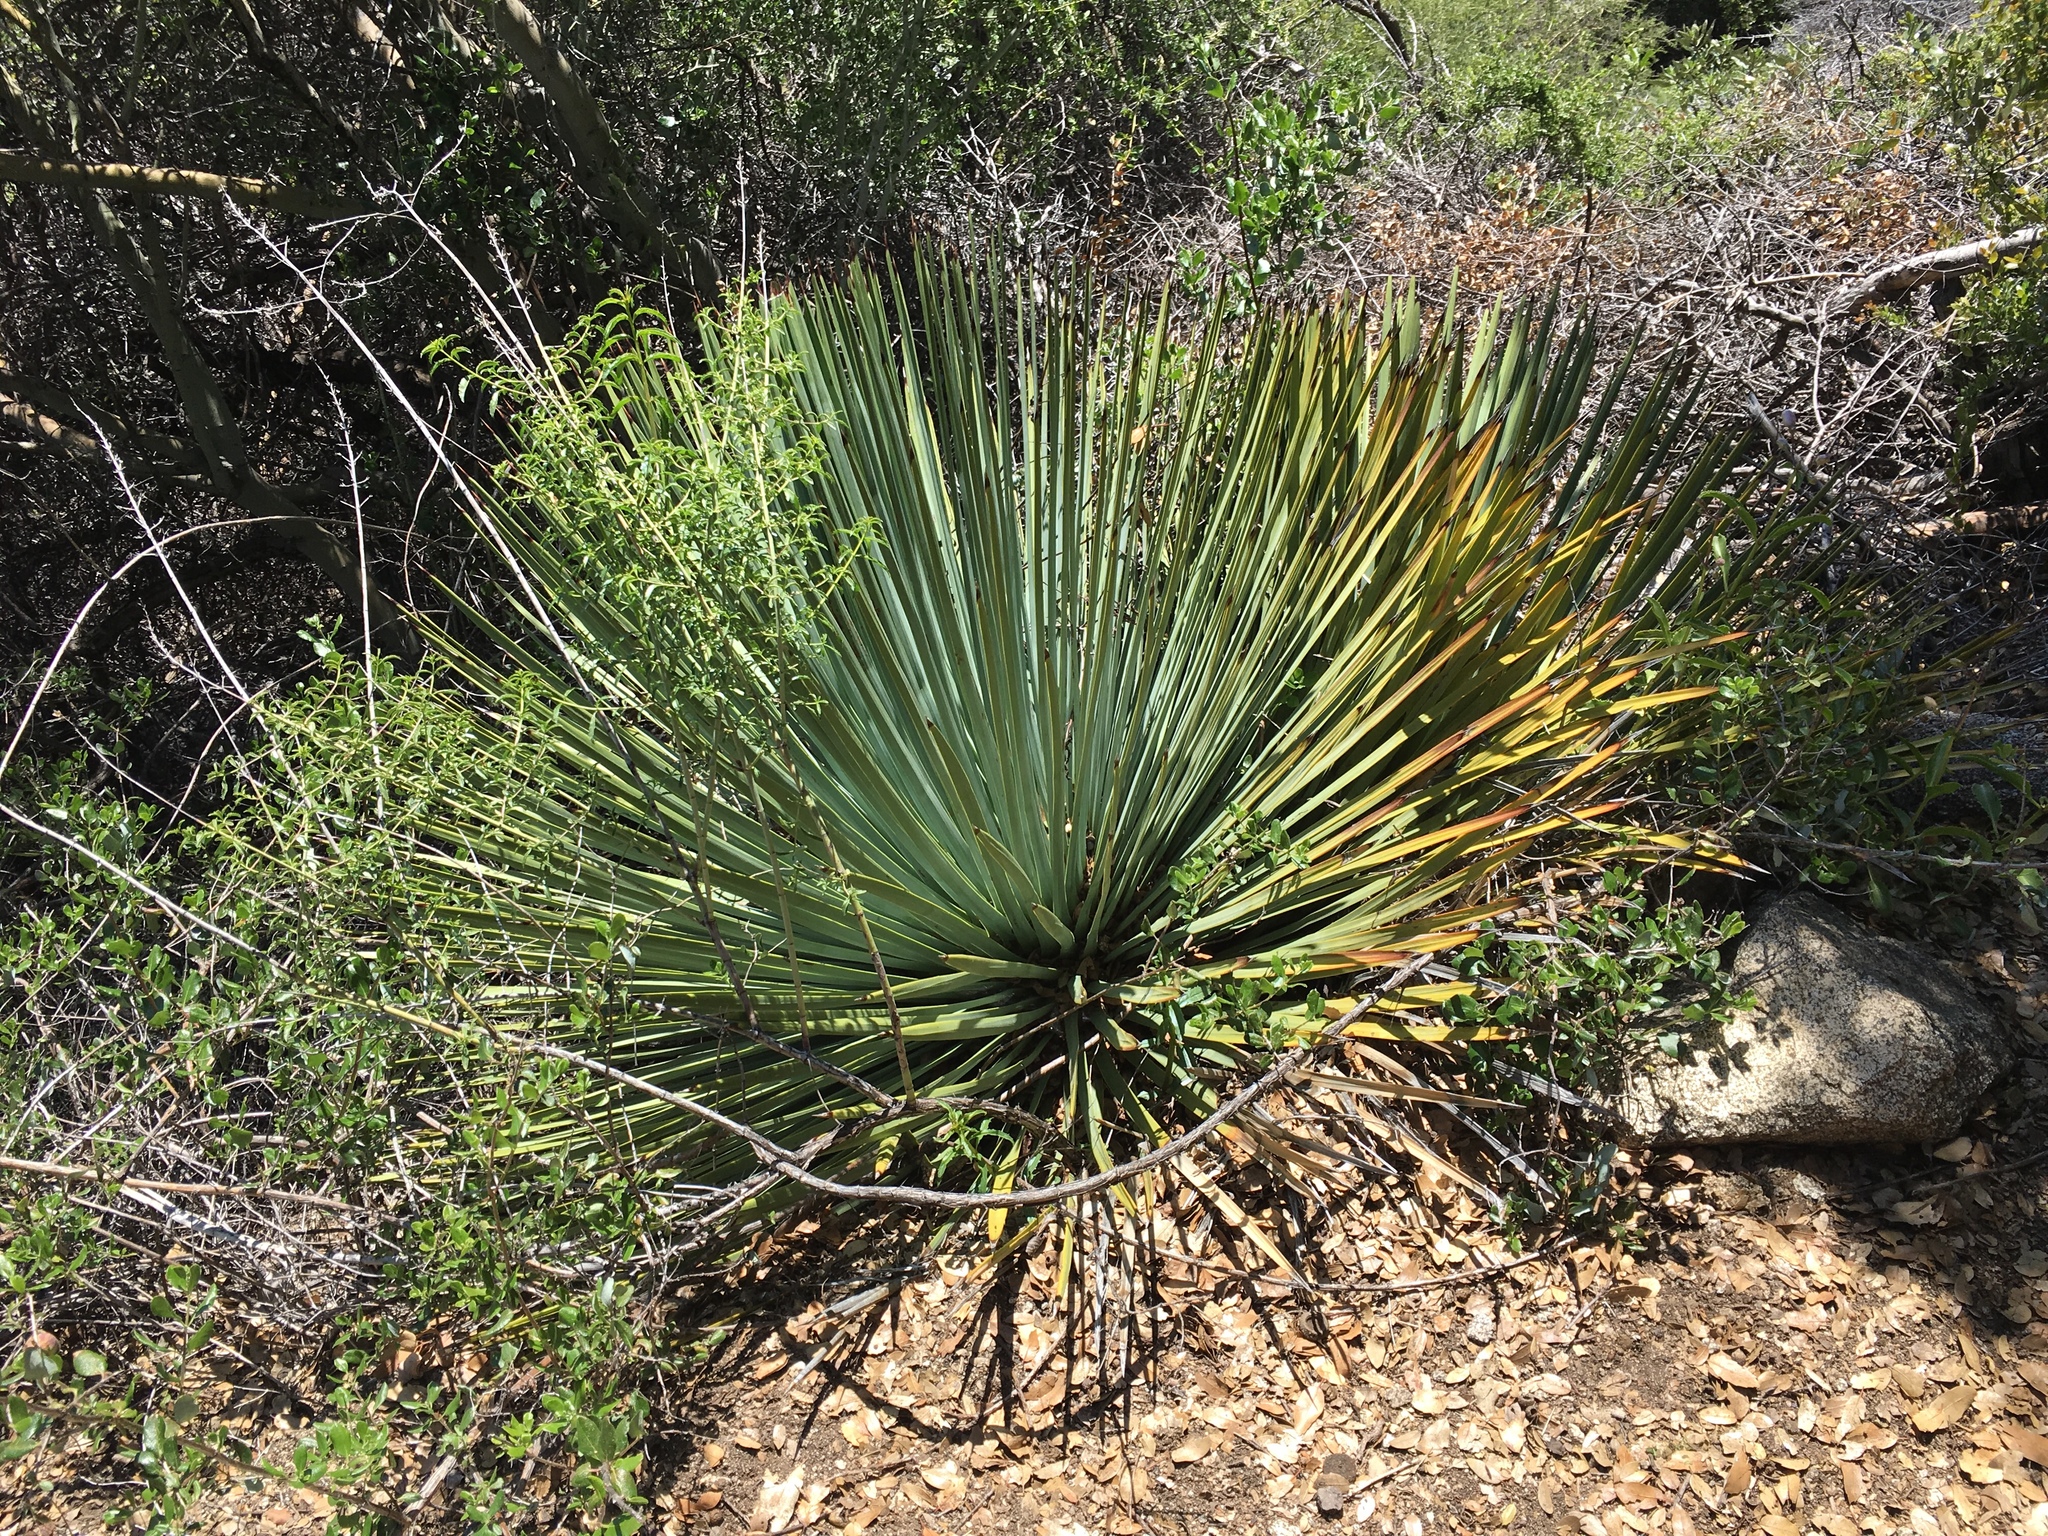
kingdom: Plantae
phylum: Tracheophyta
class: Liliopsida
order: Asparagales
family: Asparagaceae
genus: Hesperoyucca
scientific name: Hesperoyucca whipplei
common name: Our lord's-candle
